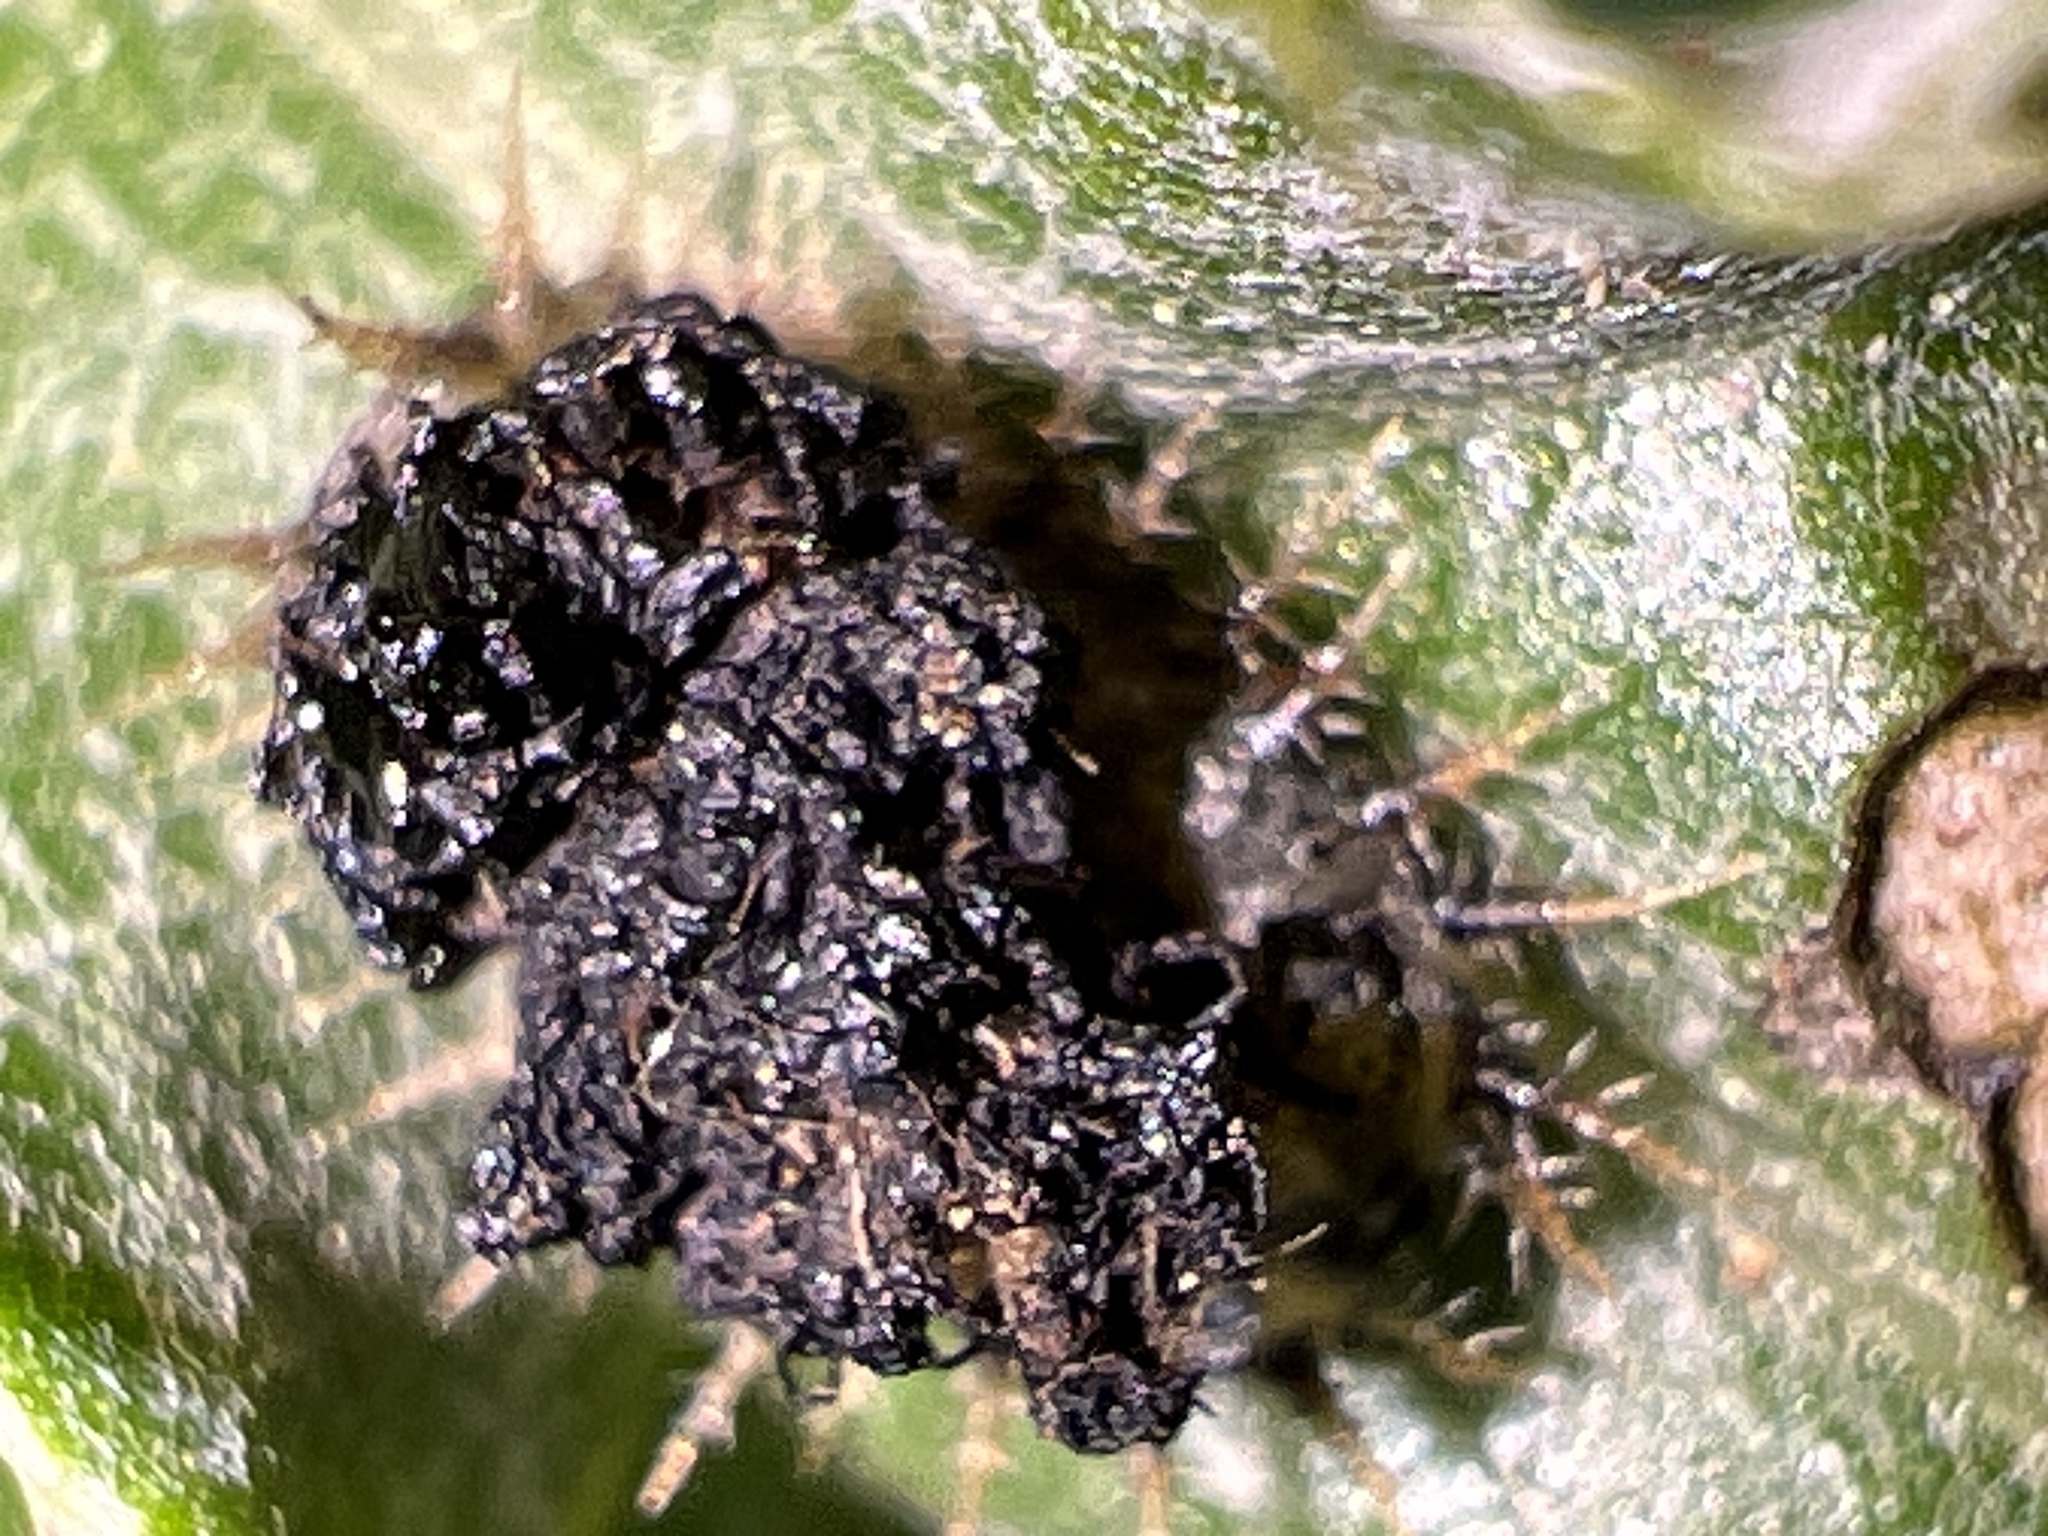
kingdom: Animalia
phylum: Arthropoda
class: Insecta
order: Coleoptera
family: Chrysomelidae
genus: Cassida
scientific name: Cassida rubiginosa
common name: Thistle tortoise beetle
